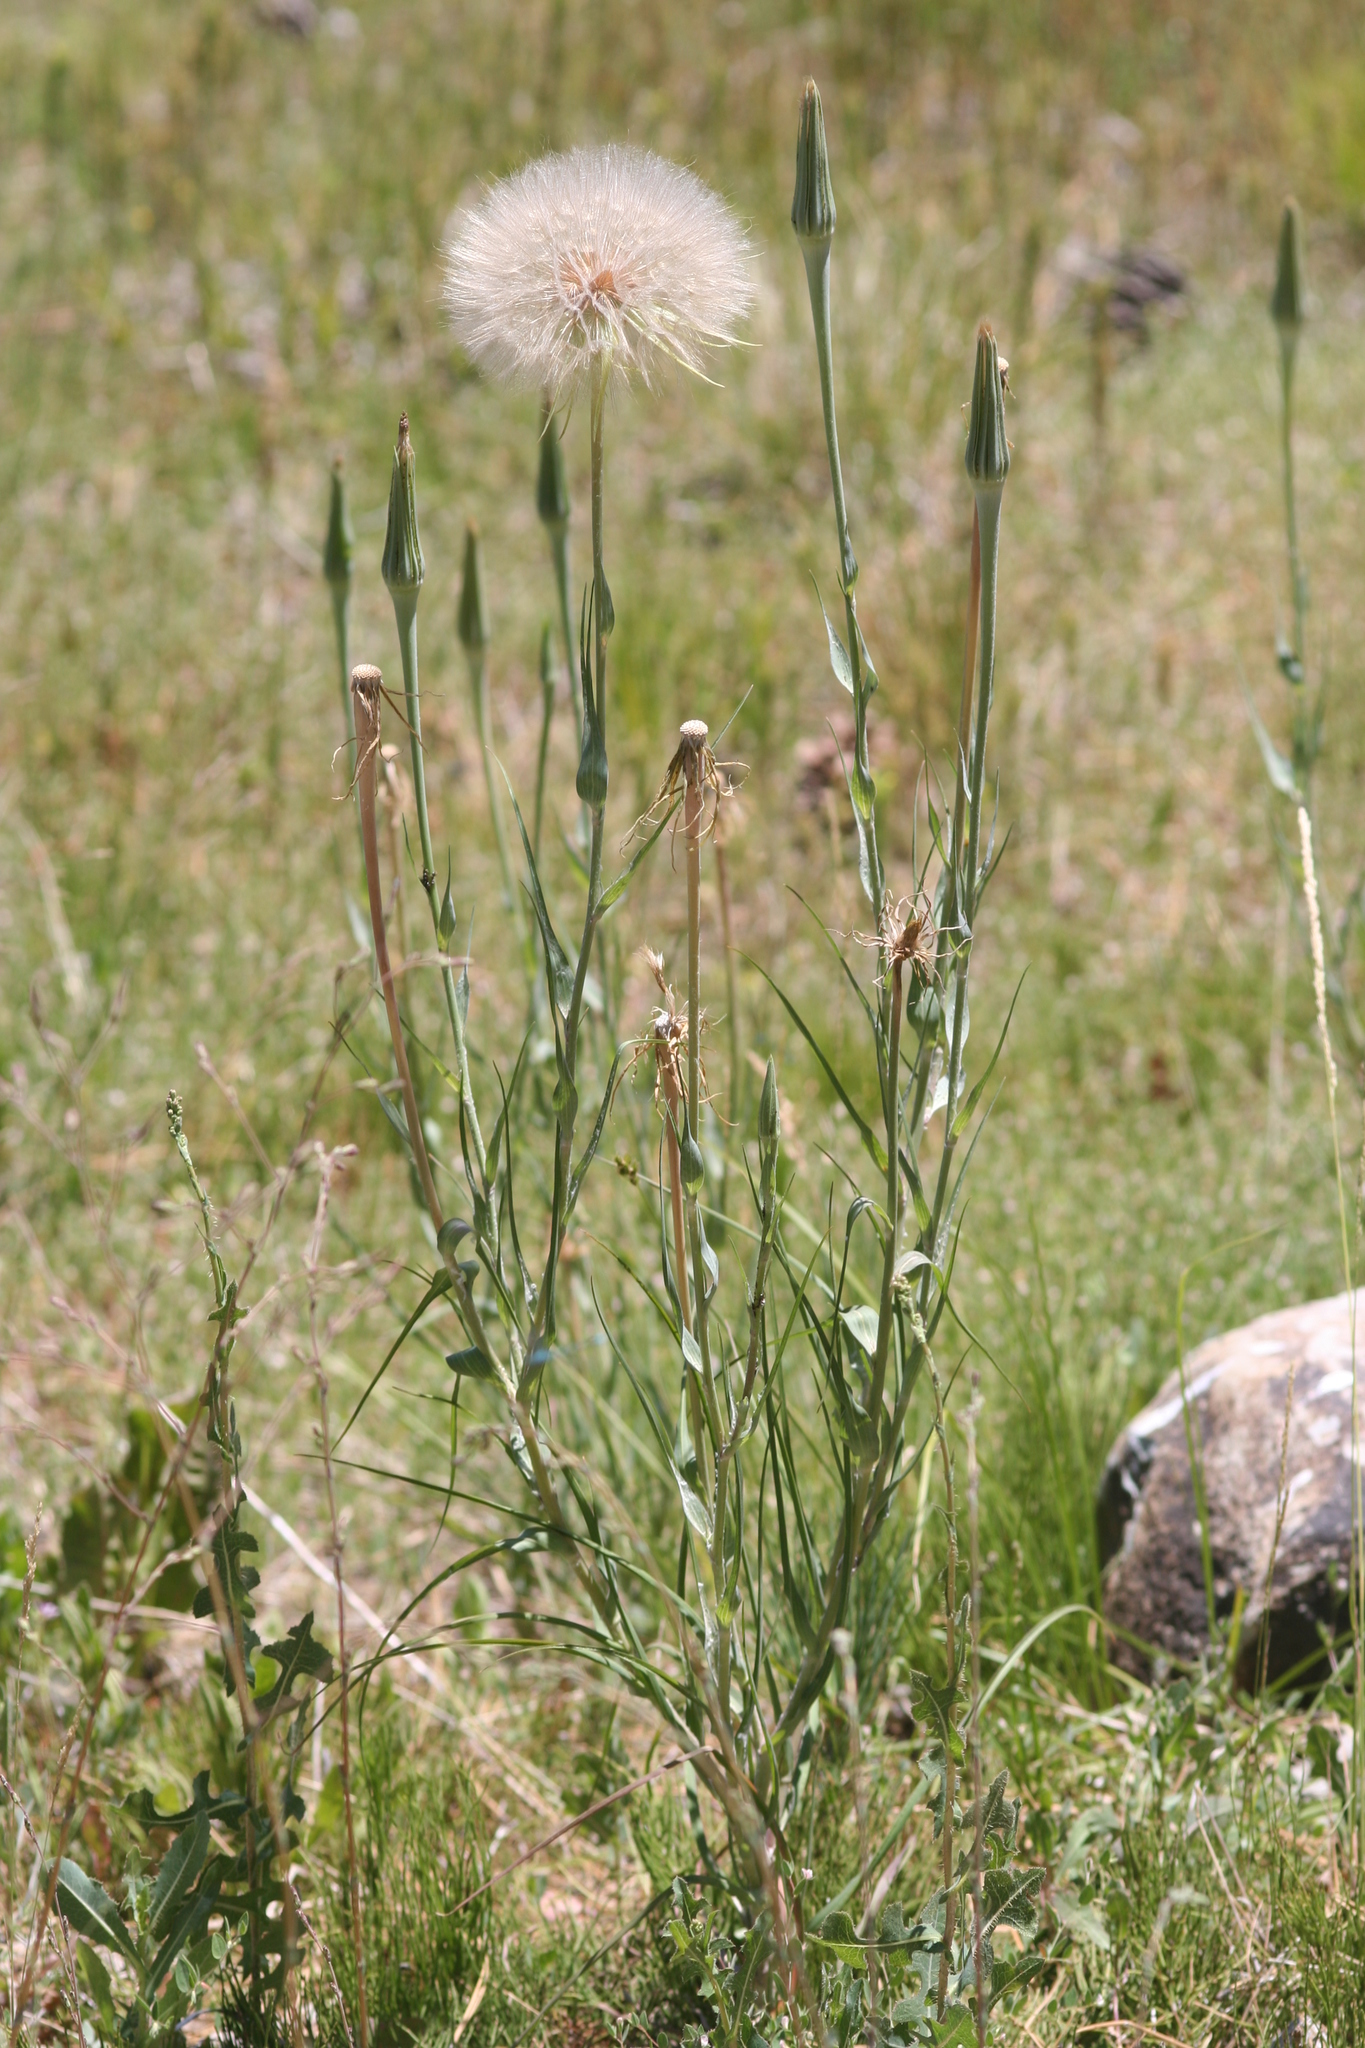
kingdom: Plantae
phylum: Tracheophyta
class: Magnoliopsida
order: Asterales
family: Asteraceae
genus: Tragopogon
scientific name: Tragopogon dubius
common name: Yellow salsify
